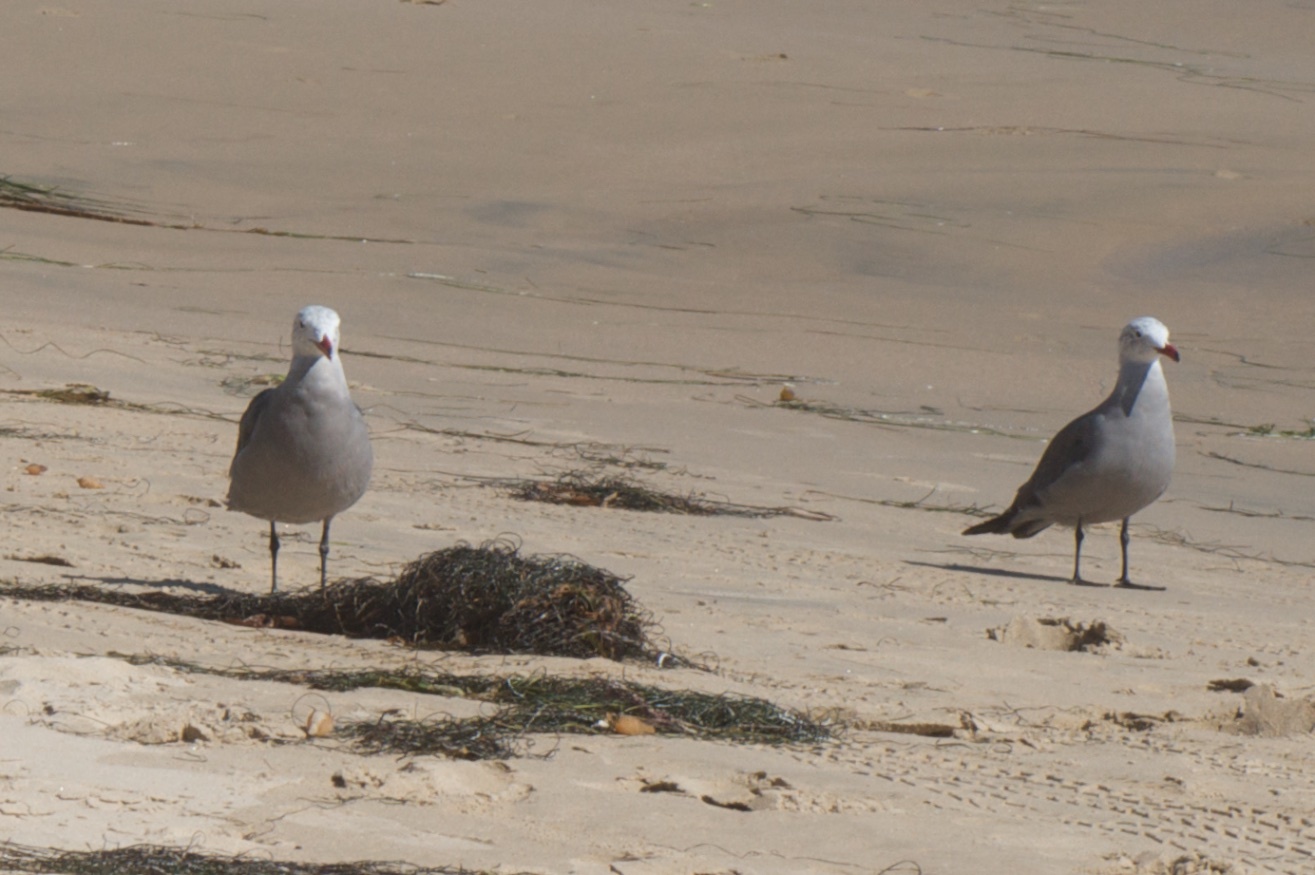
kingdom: Animalia
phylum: Chordata
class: Aves
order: Charadriiformes
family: Laridae
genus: Larus
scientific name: Larus heermanni
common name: Heermann's gull
